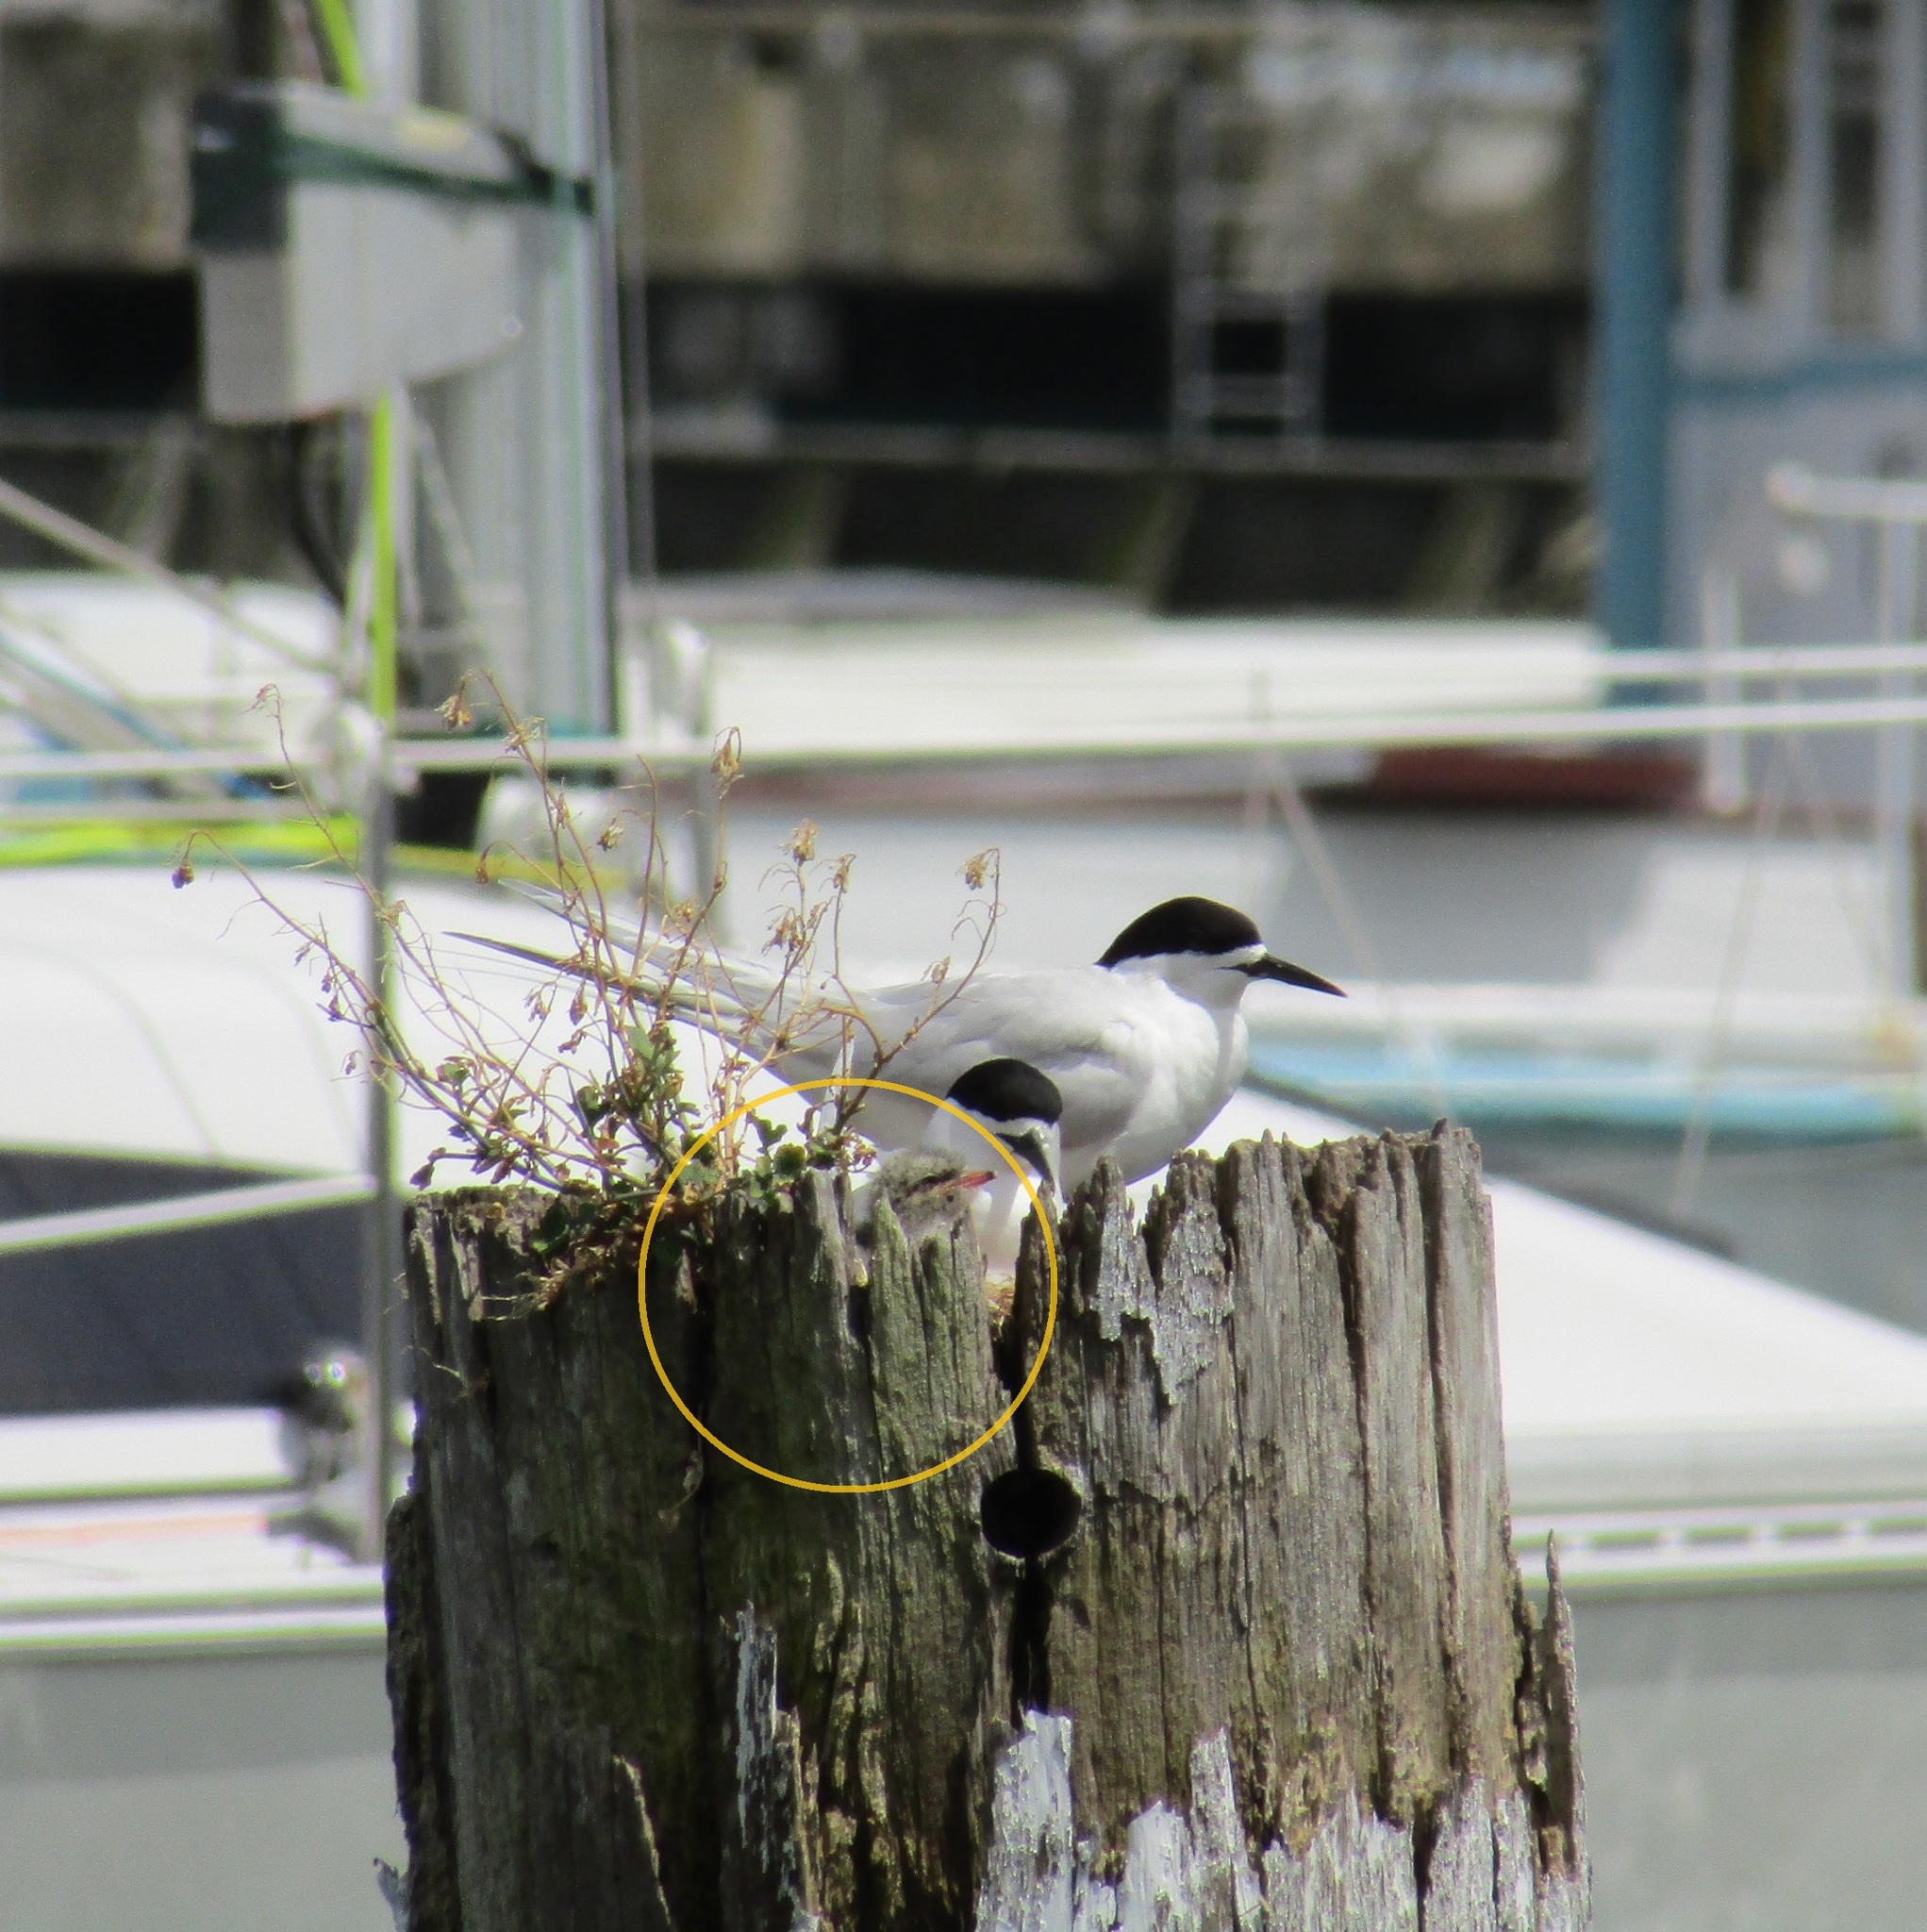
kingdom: Animalia
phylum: Chordata
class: Aves
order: Charadriiformes
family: Laridae
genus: Sterna
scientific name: Sterna striata
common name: White-fronted tern
